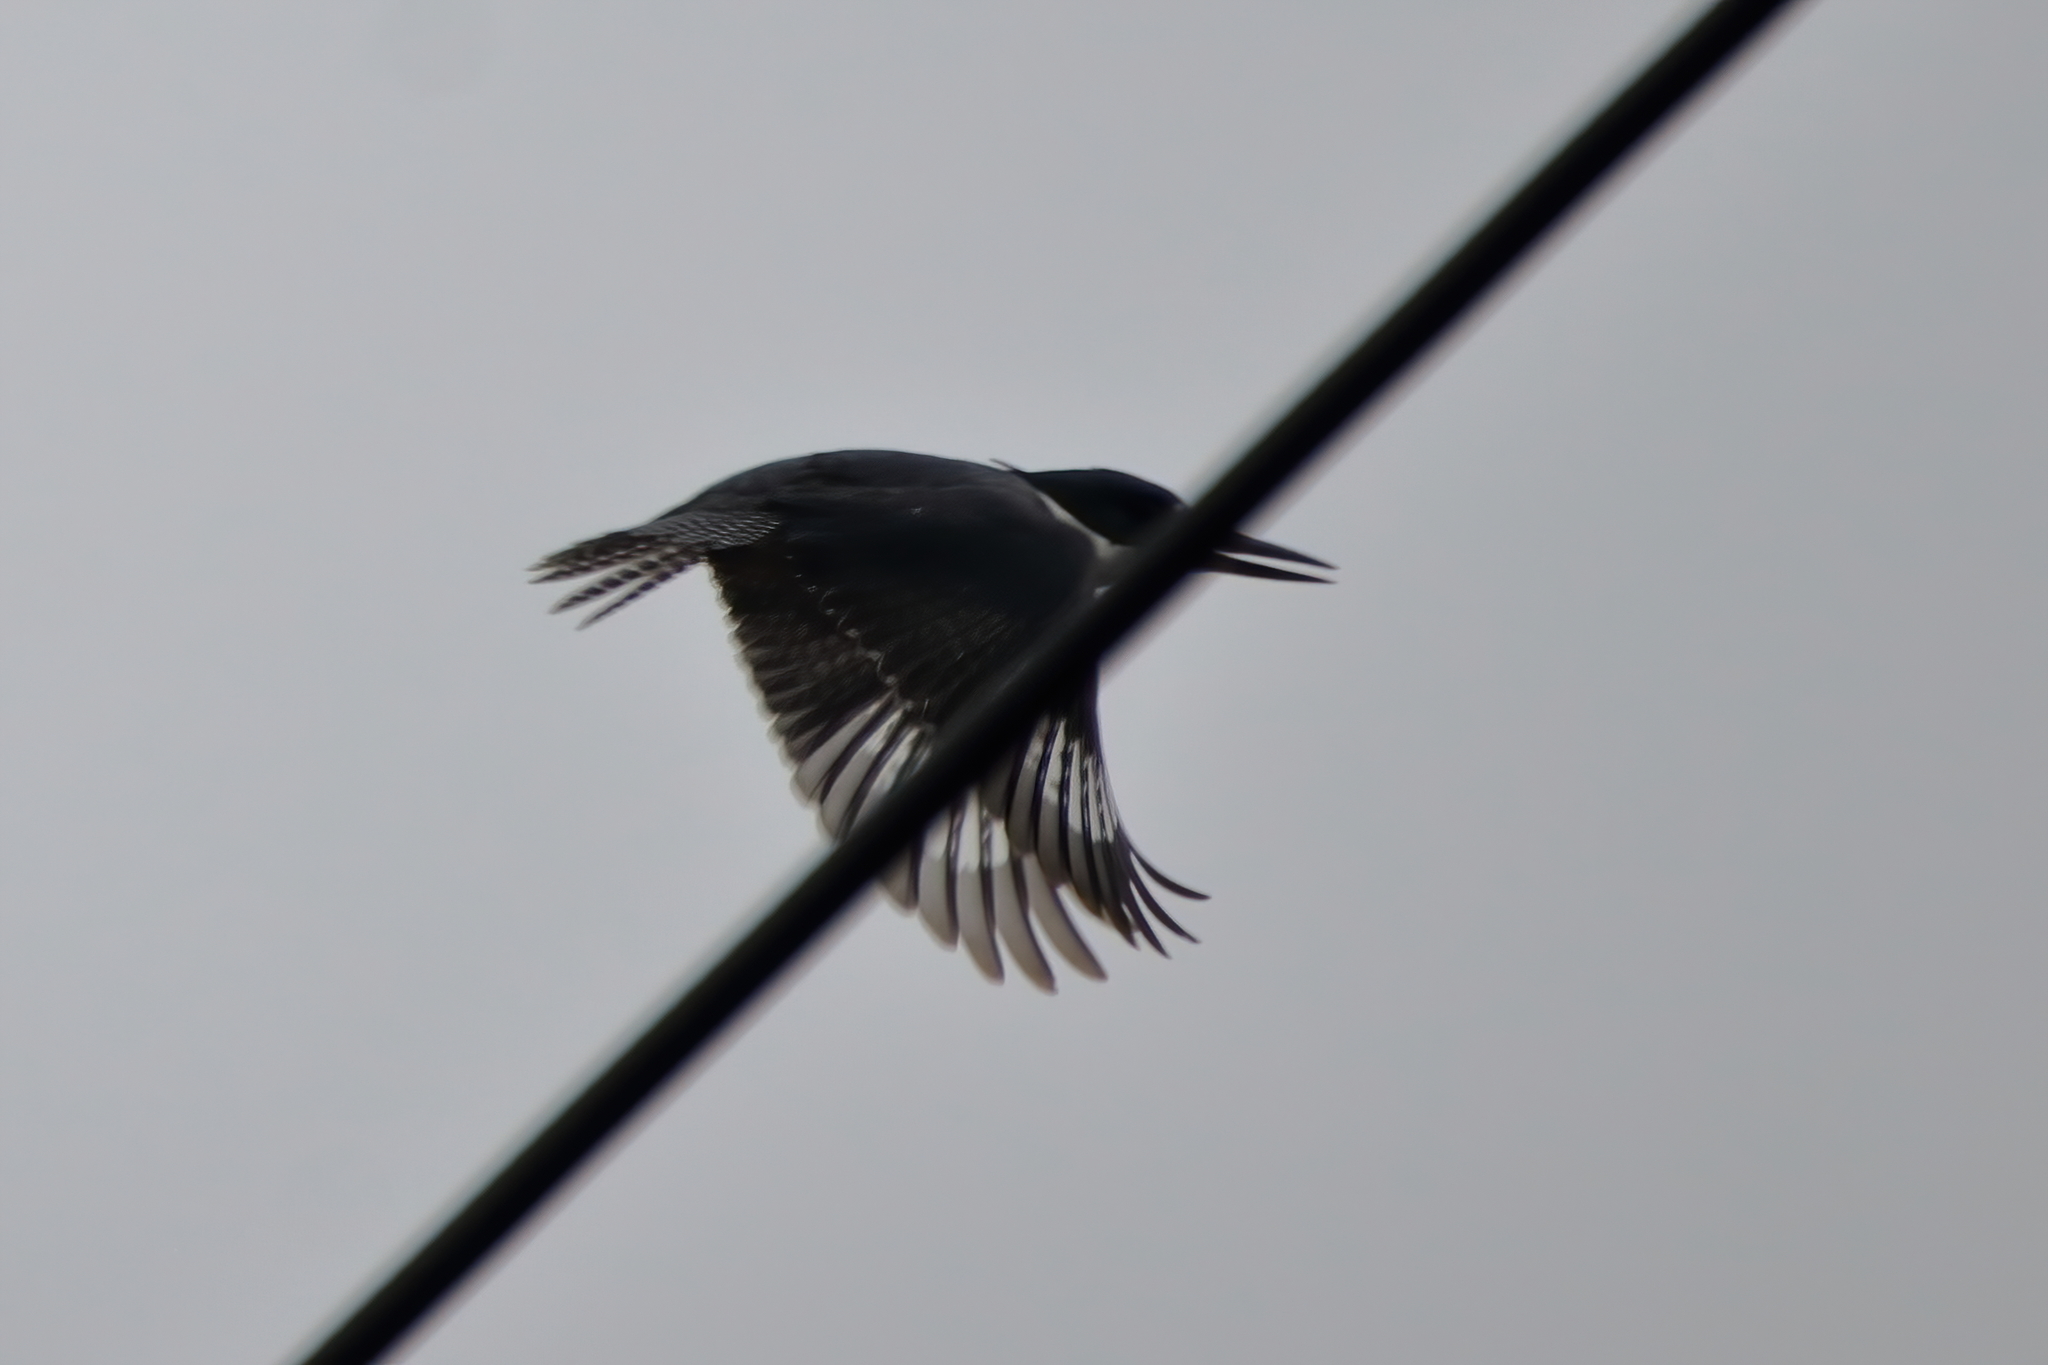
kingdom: Animalia
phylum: Chordata
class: Aves
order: Coraciiformes
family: Alcedinidae
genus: Megaceryle
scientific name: Megaceryle alcyon
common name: Belted kingfisher
